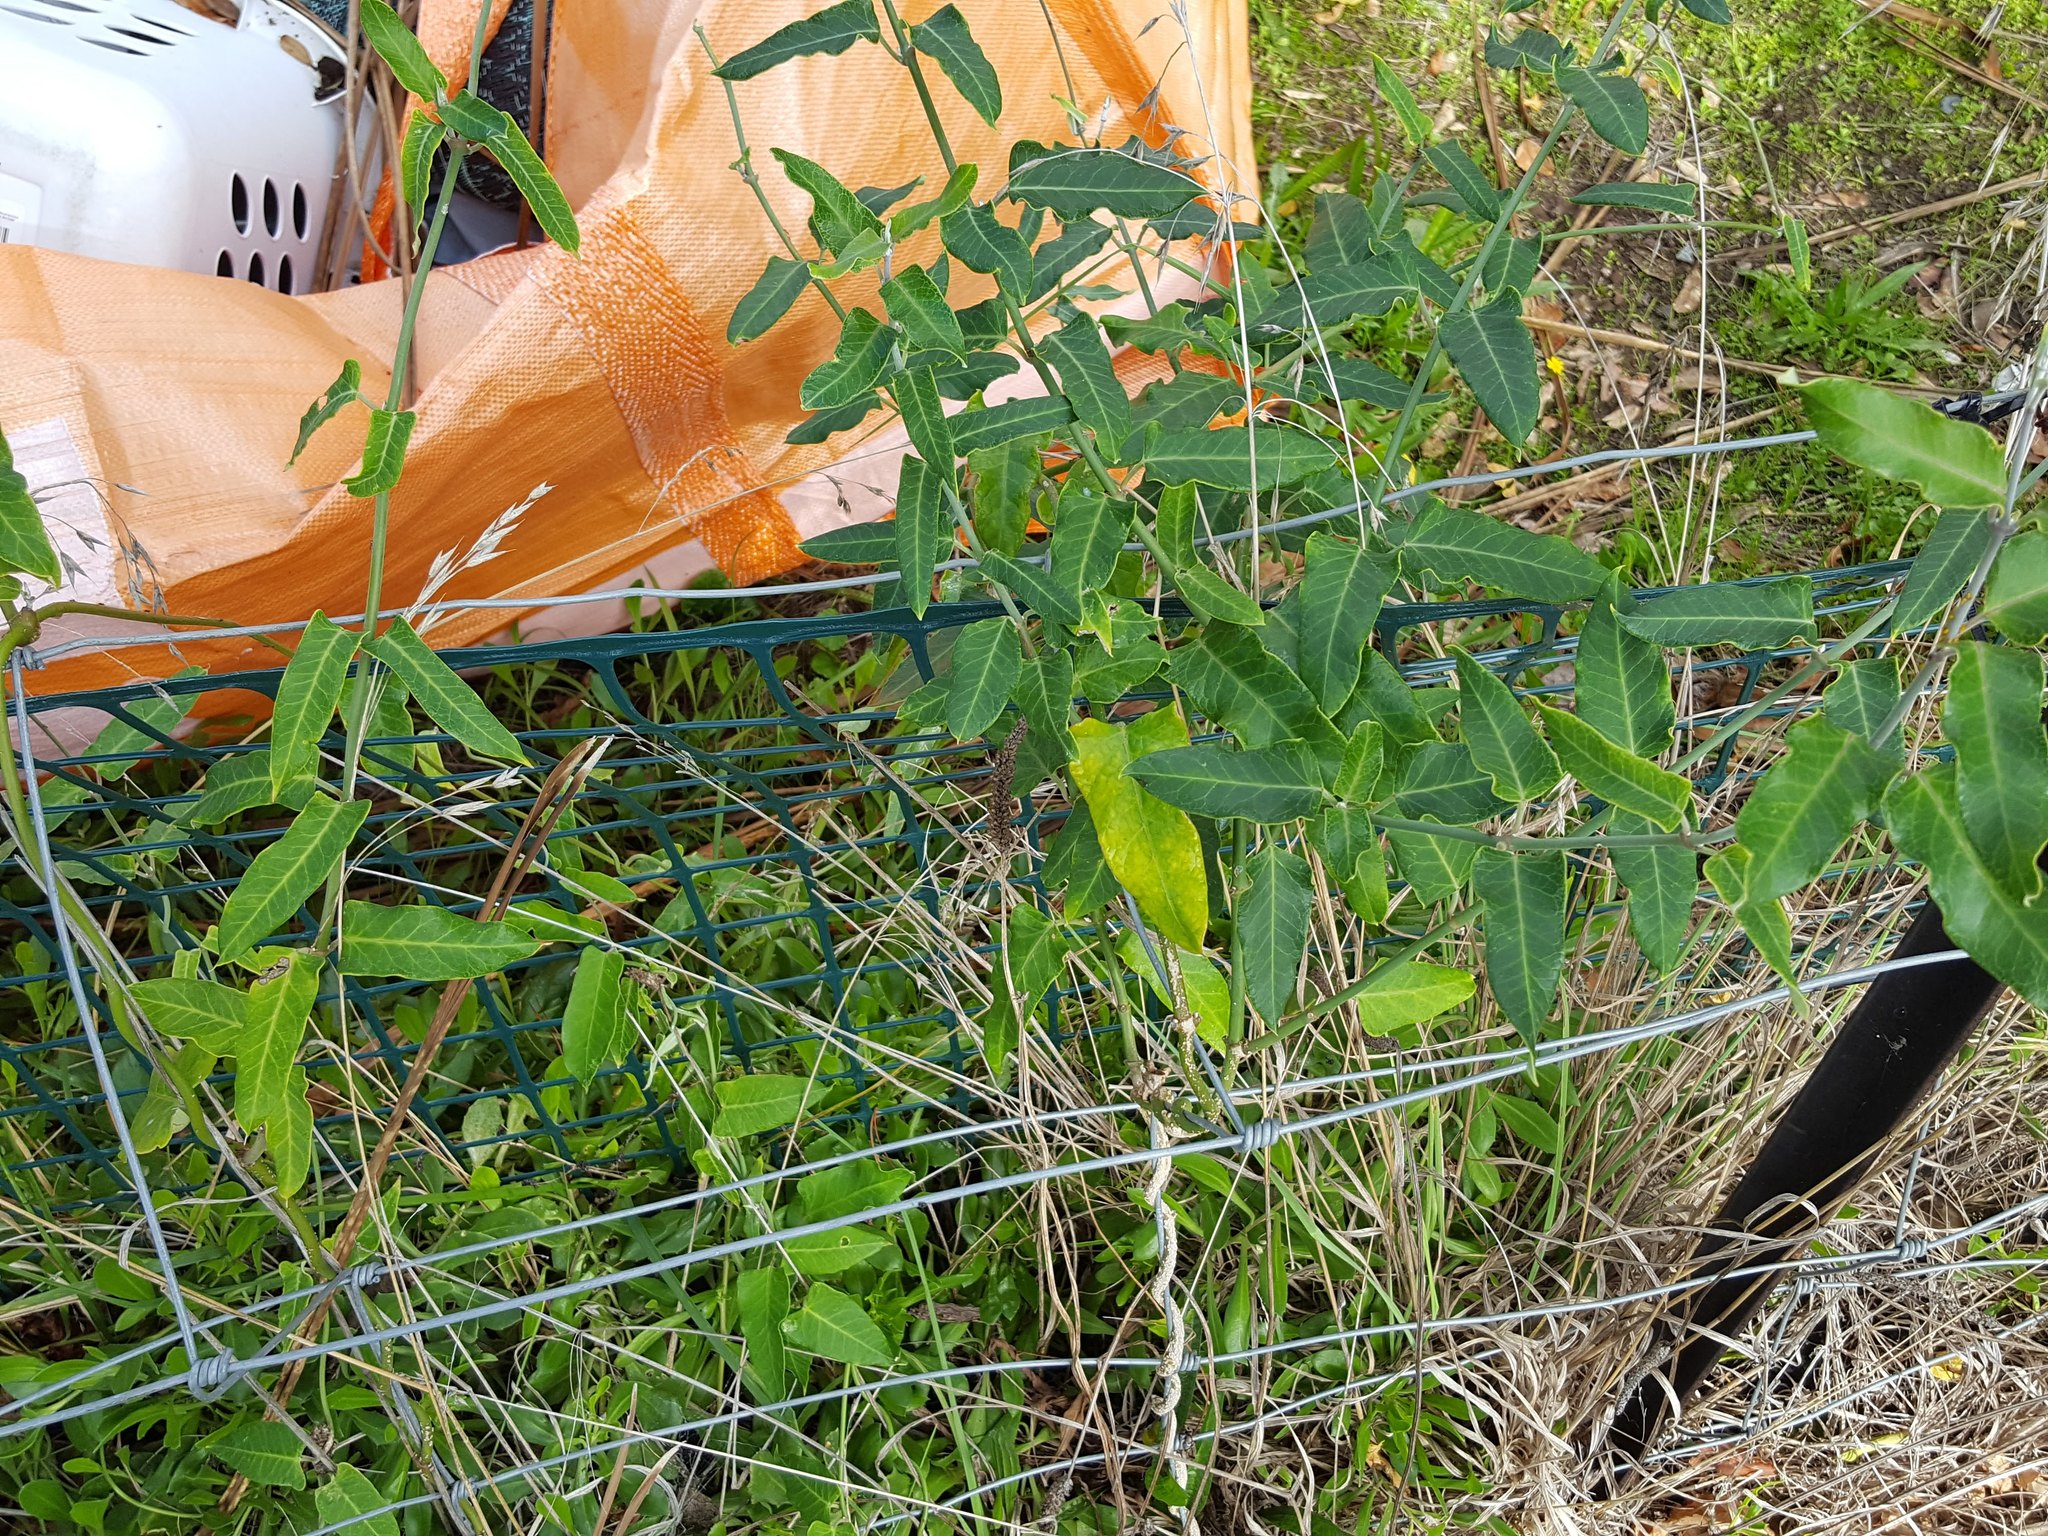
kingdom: Plantae
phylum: Tracheophyta
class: Magnoliopsida
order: Gentianales
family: Apocynaceae
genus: Araujia
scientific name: Araujia sericifera
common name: White bladderflower
